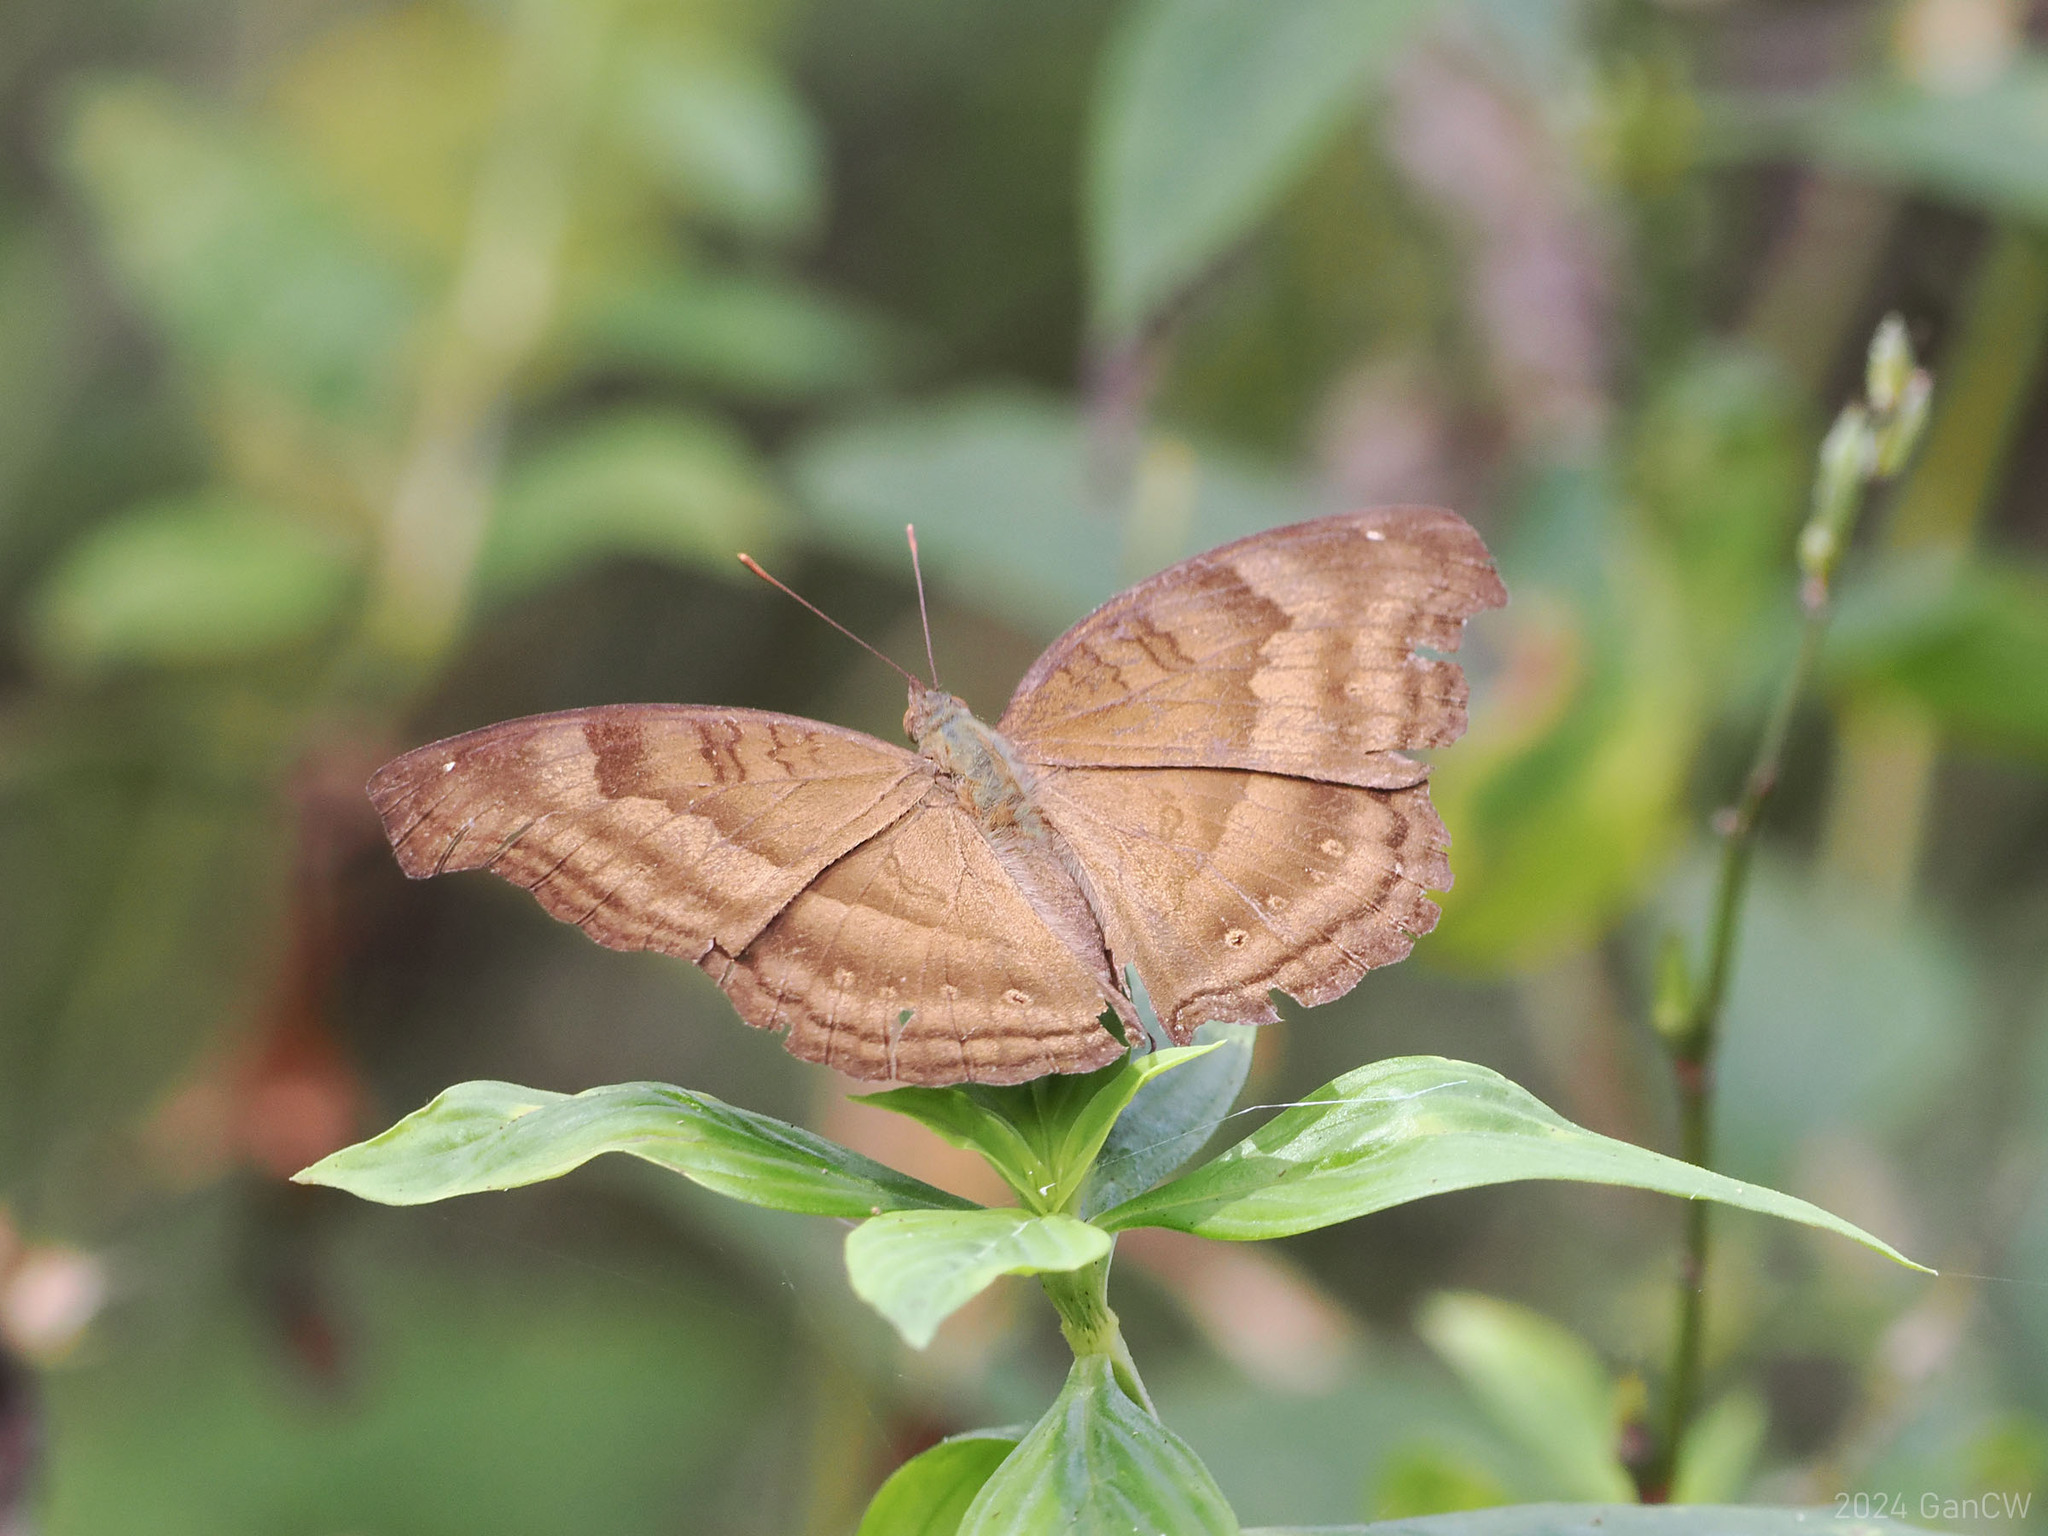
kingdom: Animalia
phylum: Arthropoda
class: Insecta
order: Lepidoptera
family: Nymphalidae
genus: Junonia
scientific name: Junonia iphita
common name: Chocolate pansy
